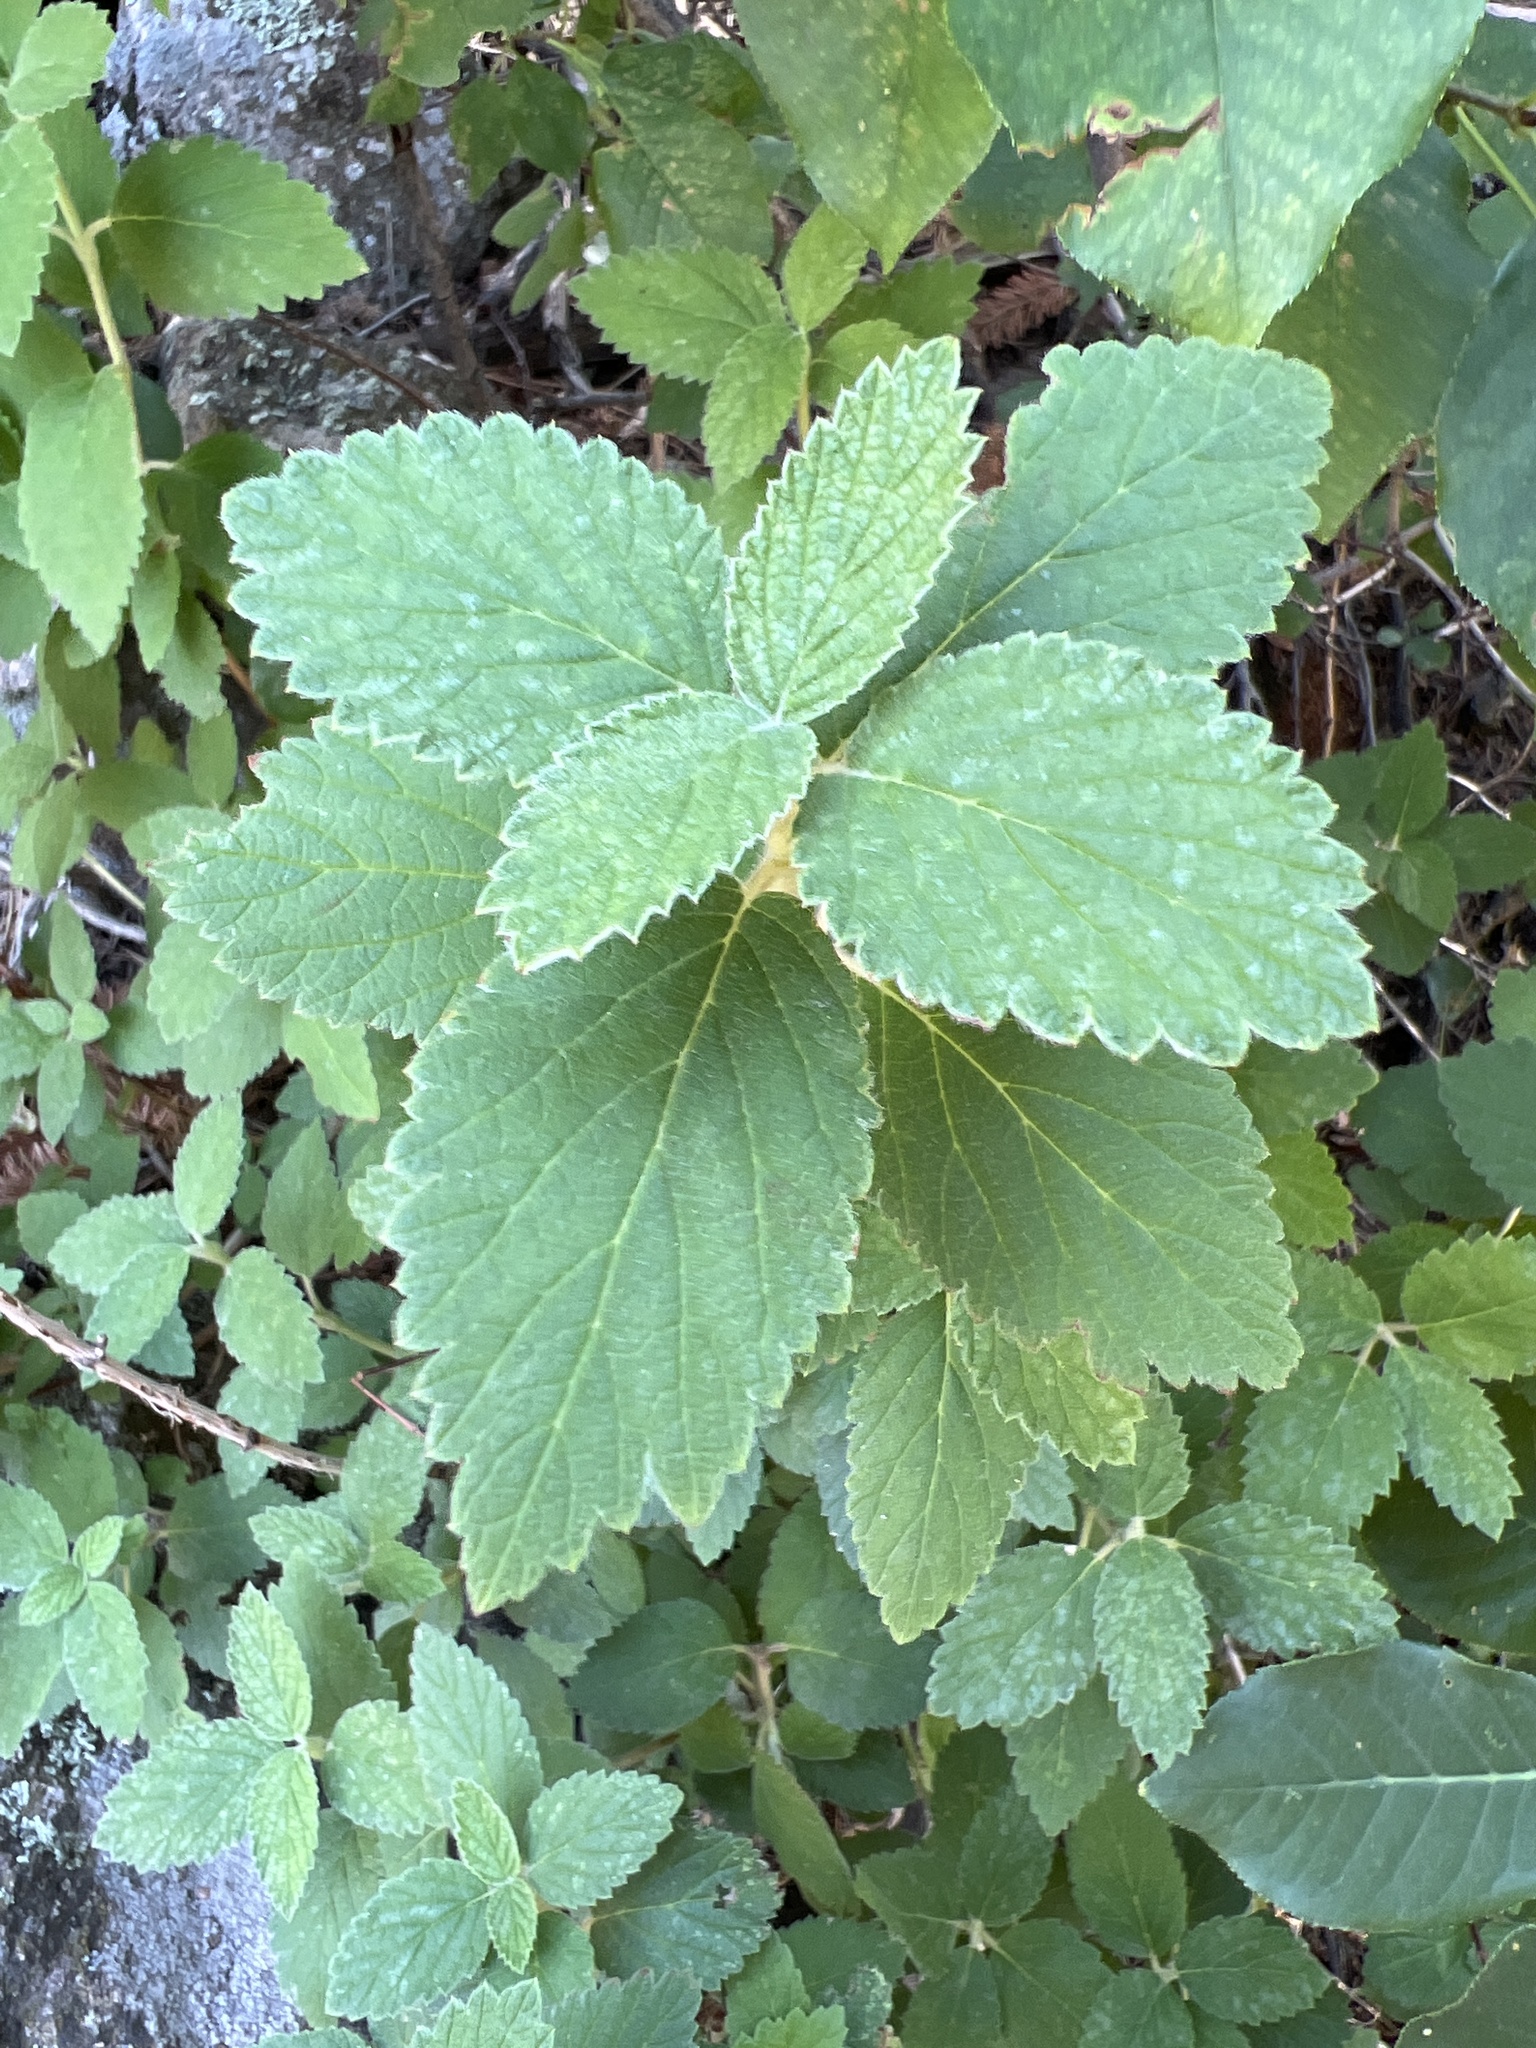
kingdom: Plantae
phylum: Tracheophyta
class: Magnoliopsida
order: Cornales
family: Hydrangeaceae
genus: Jamesia
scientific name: Jamesia americana
